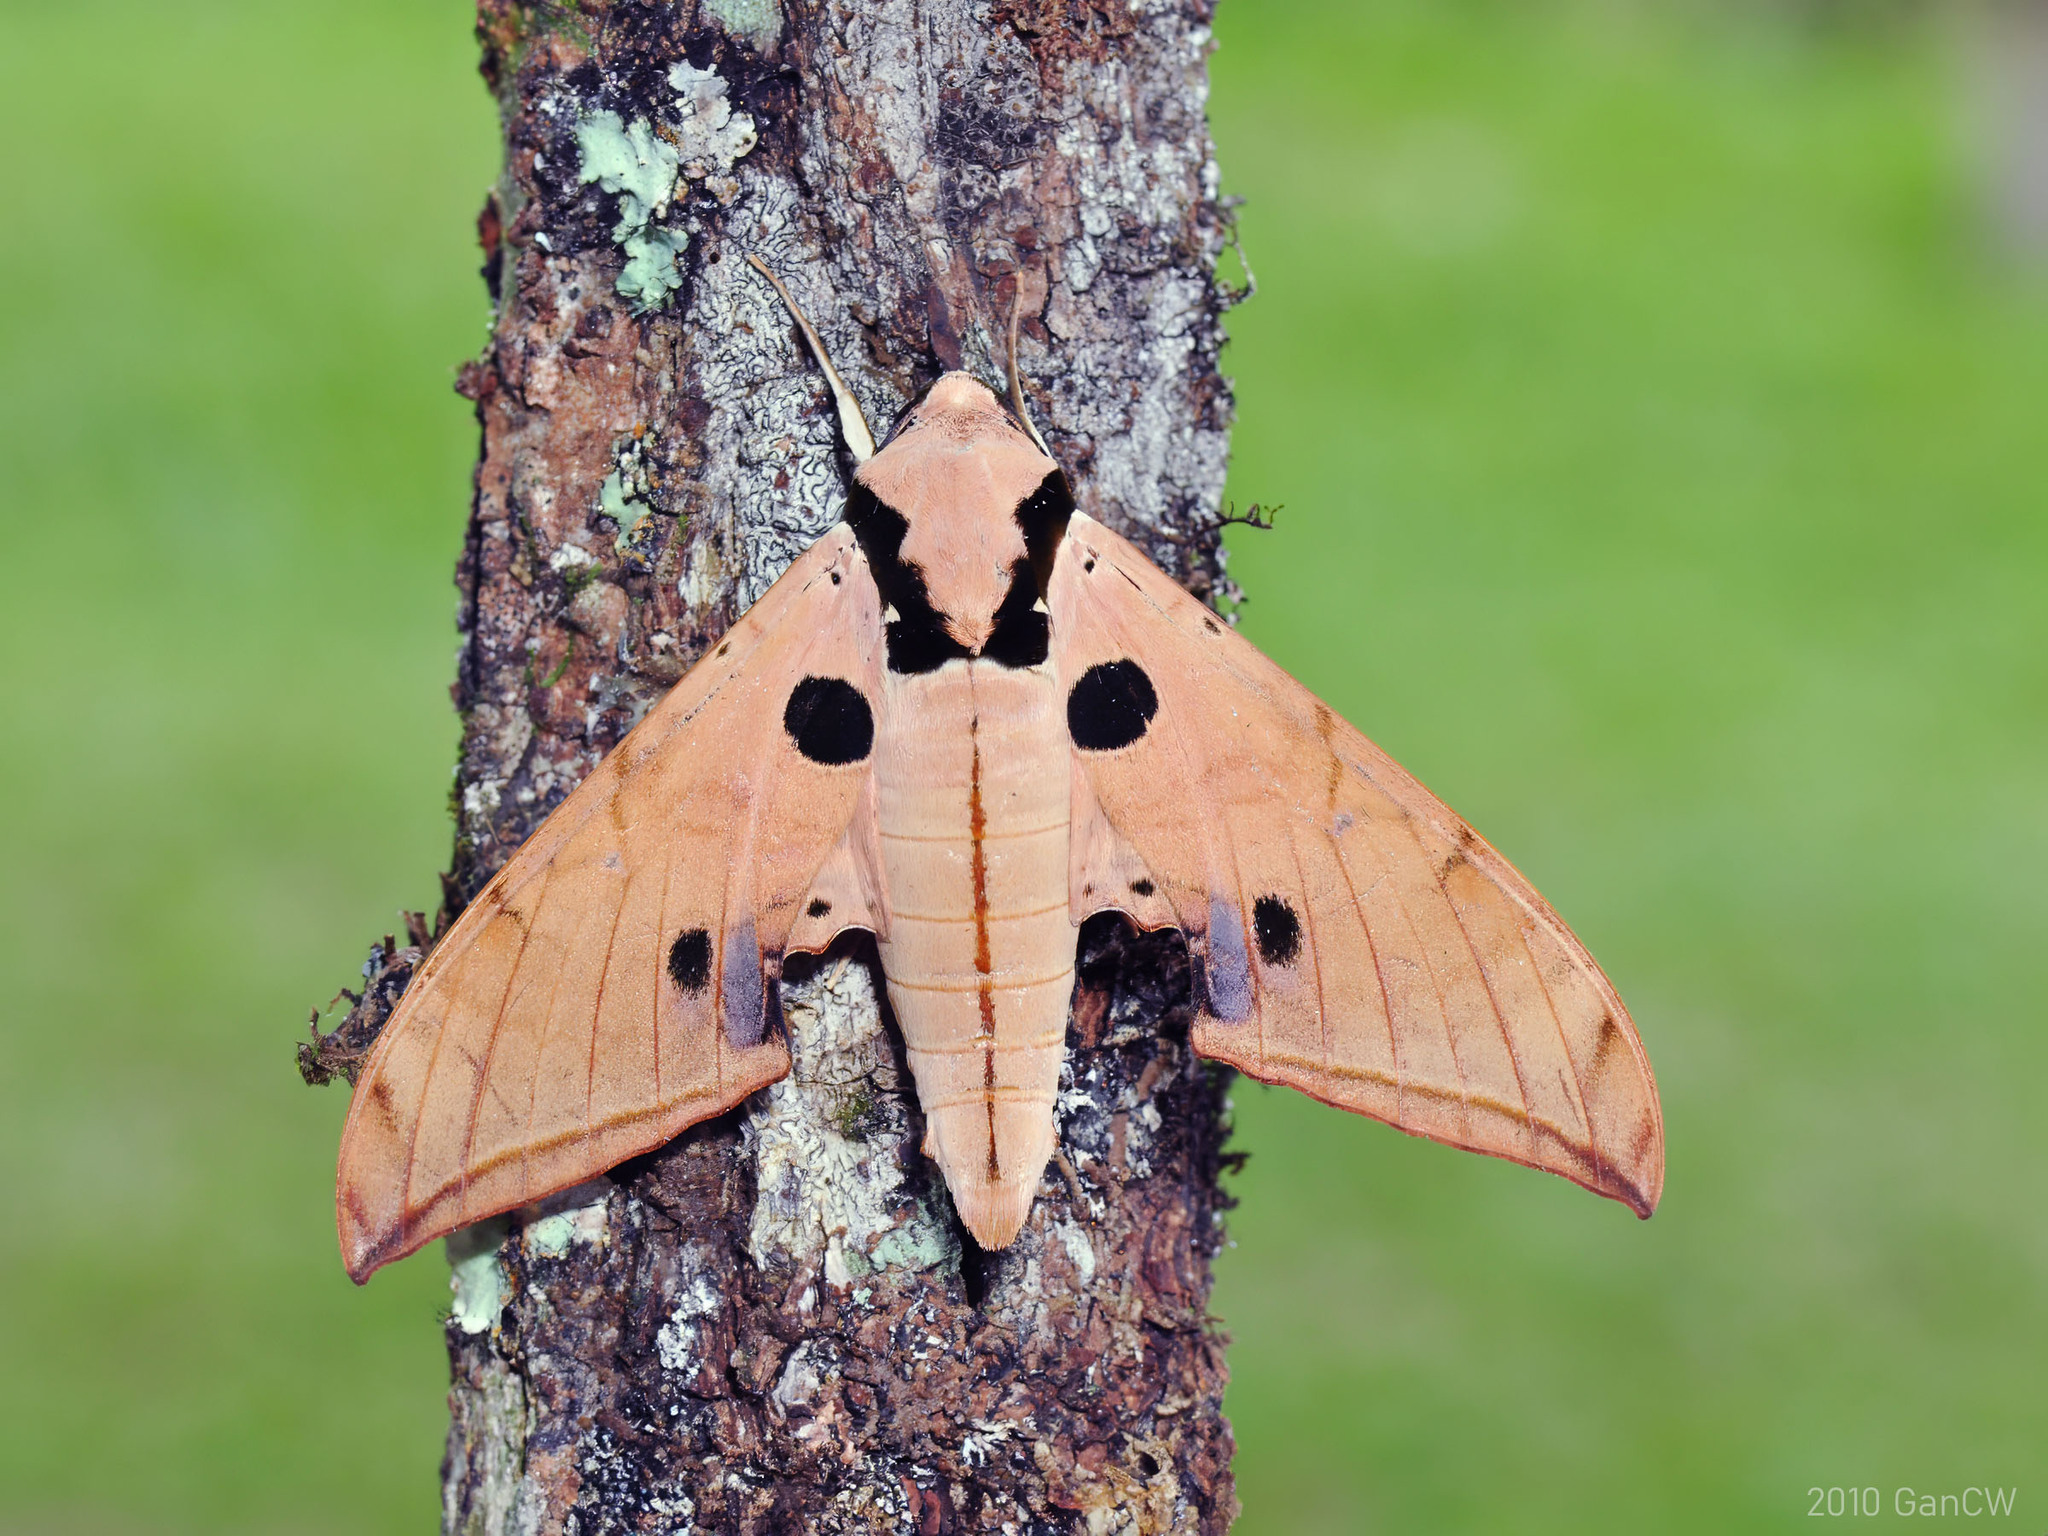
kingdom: Animalia
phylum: Arthropoda
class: Insecta
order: Lepidoptera
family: Sphingidae
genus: Ambulyx
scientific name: Ambulyx obliterata
